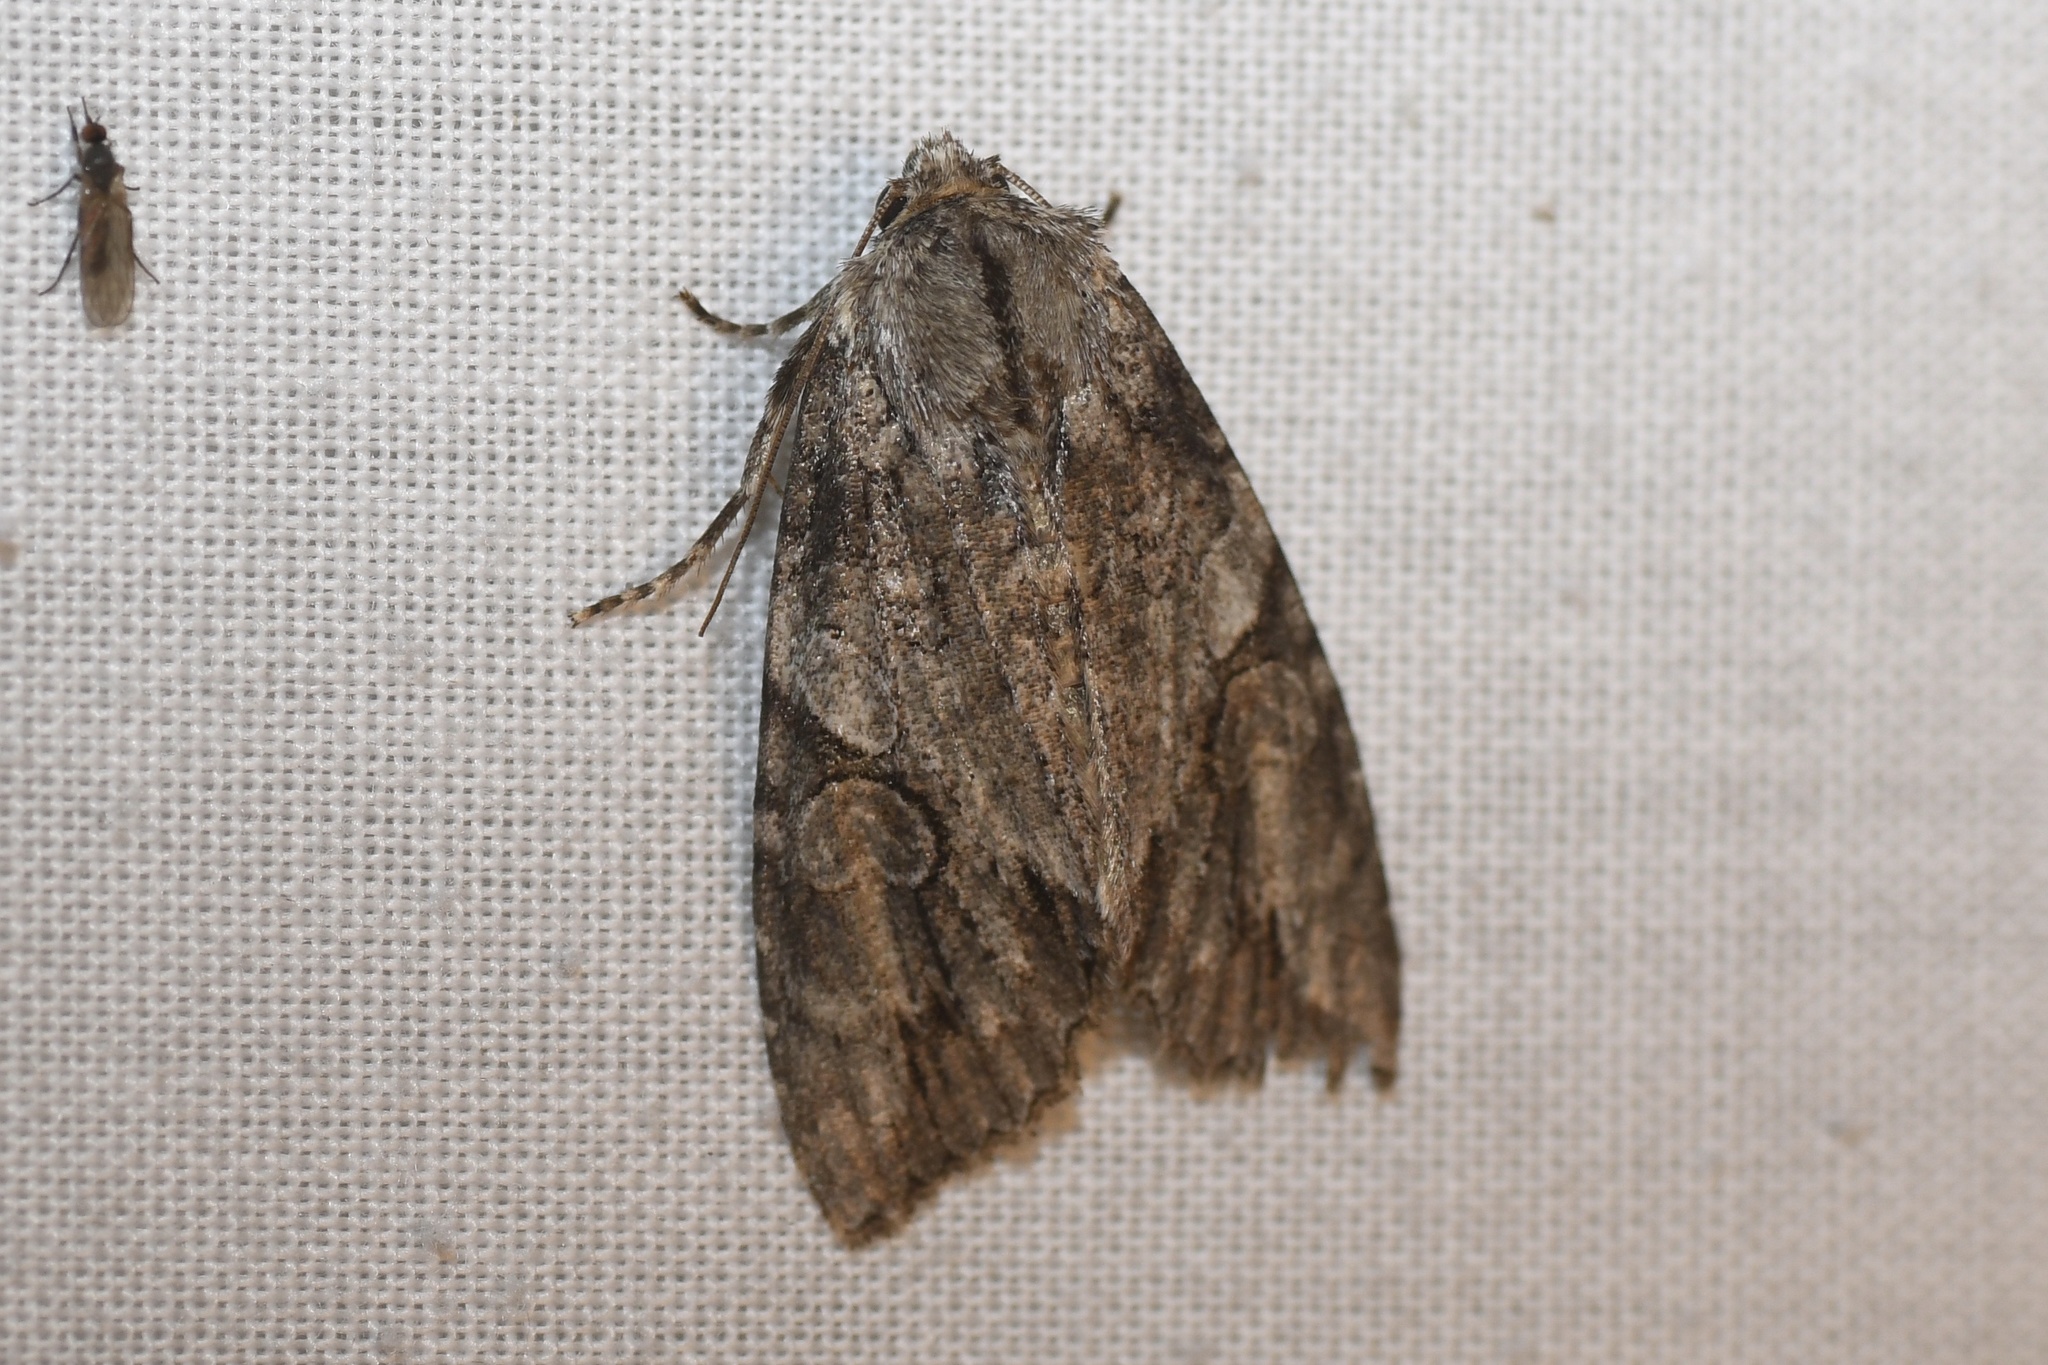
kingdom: Animalia
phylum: Arthropoda
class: Insecta
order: Lepidoptera
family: Noctuidae
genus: Achatia
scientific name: Achatia latex
